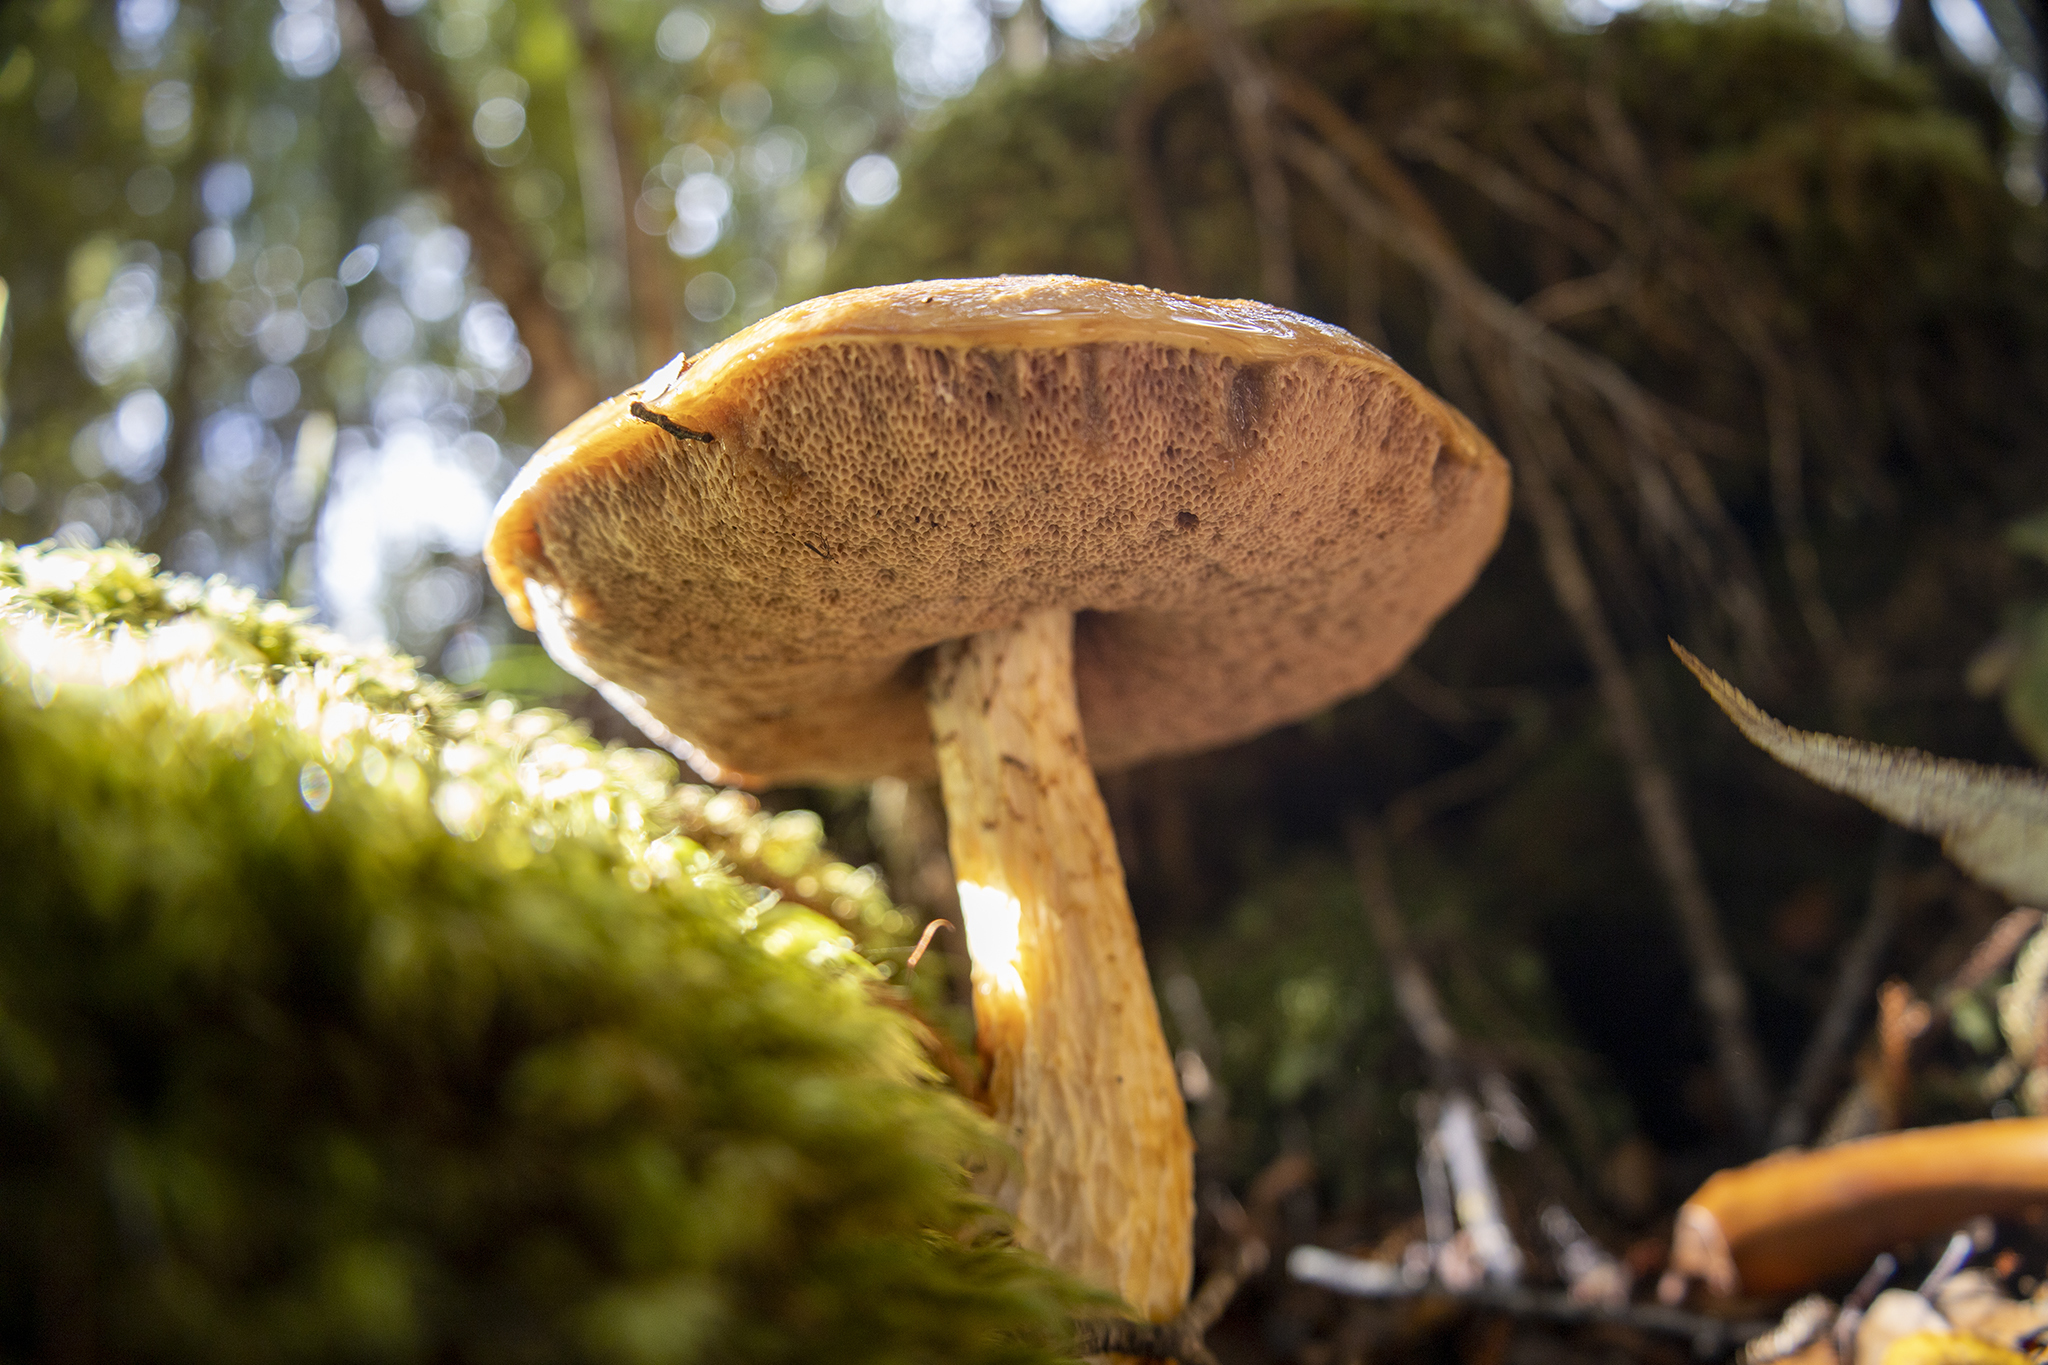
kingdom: Fungi
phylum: Basidiomycota
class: Agaricomycetes
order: Boletales
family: Boletaceae
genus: Austroboletus
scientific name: Austroboletus lacunosus
